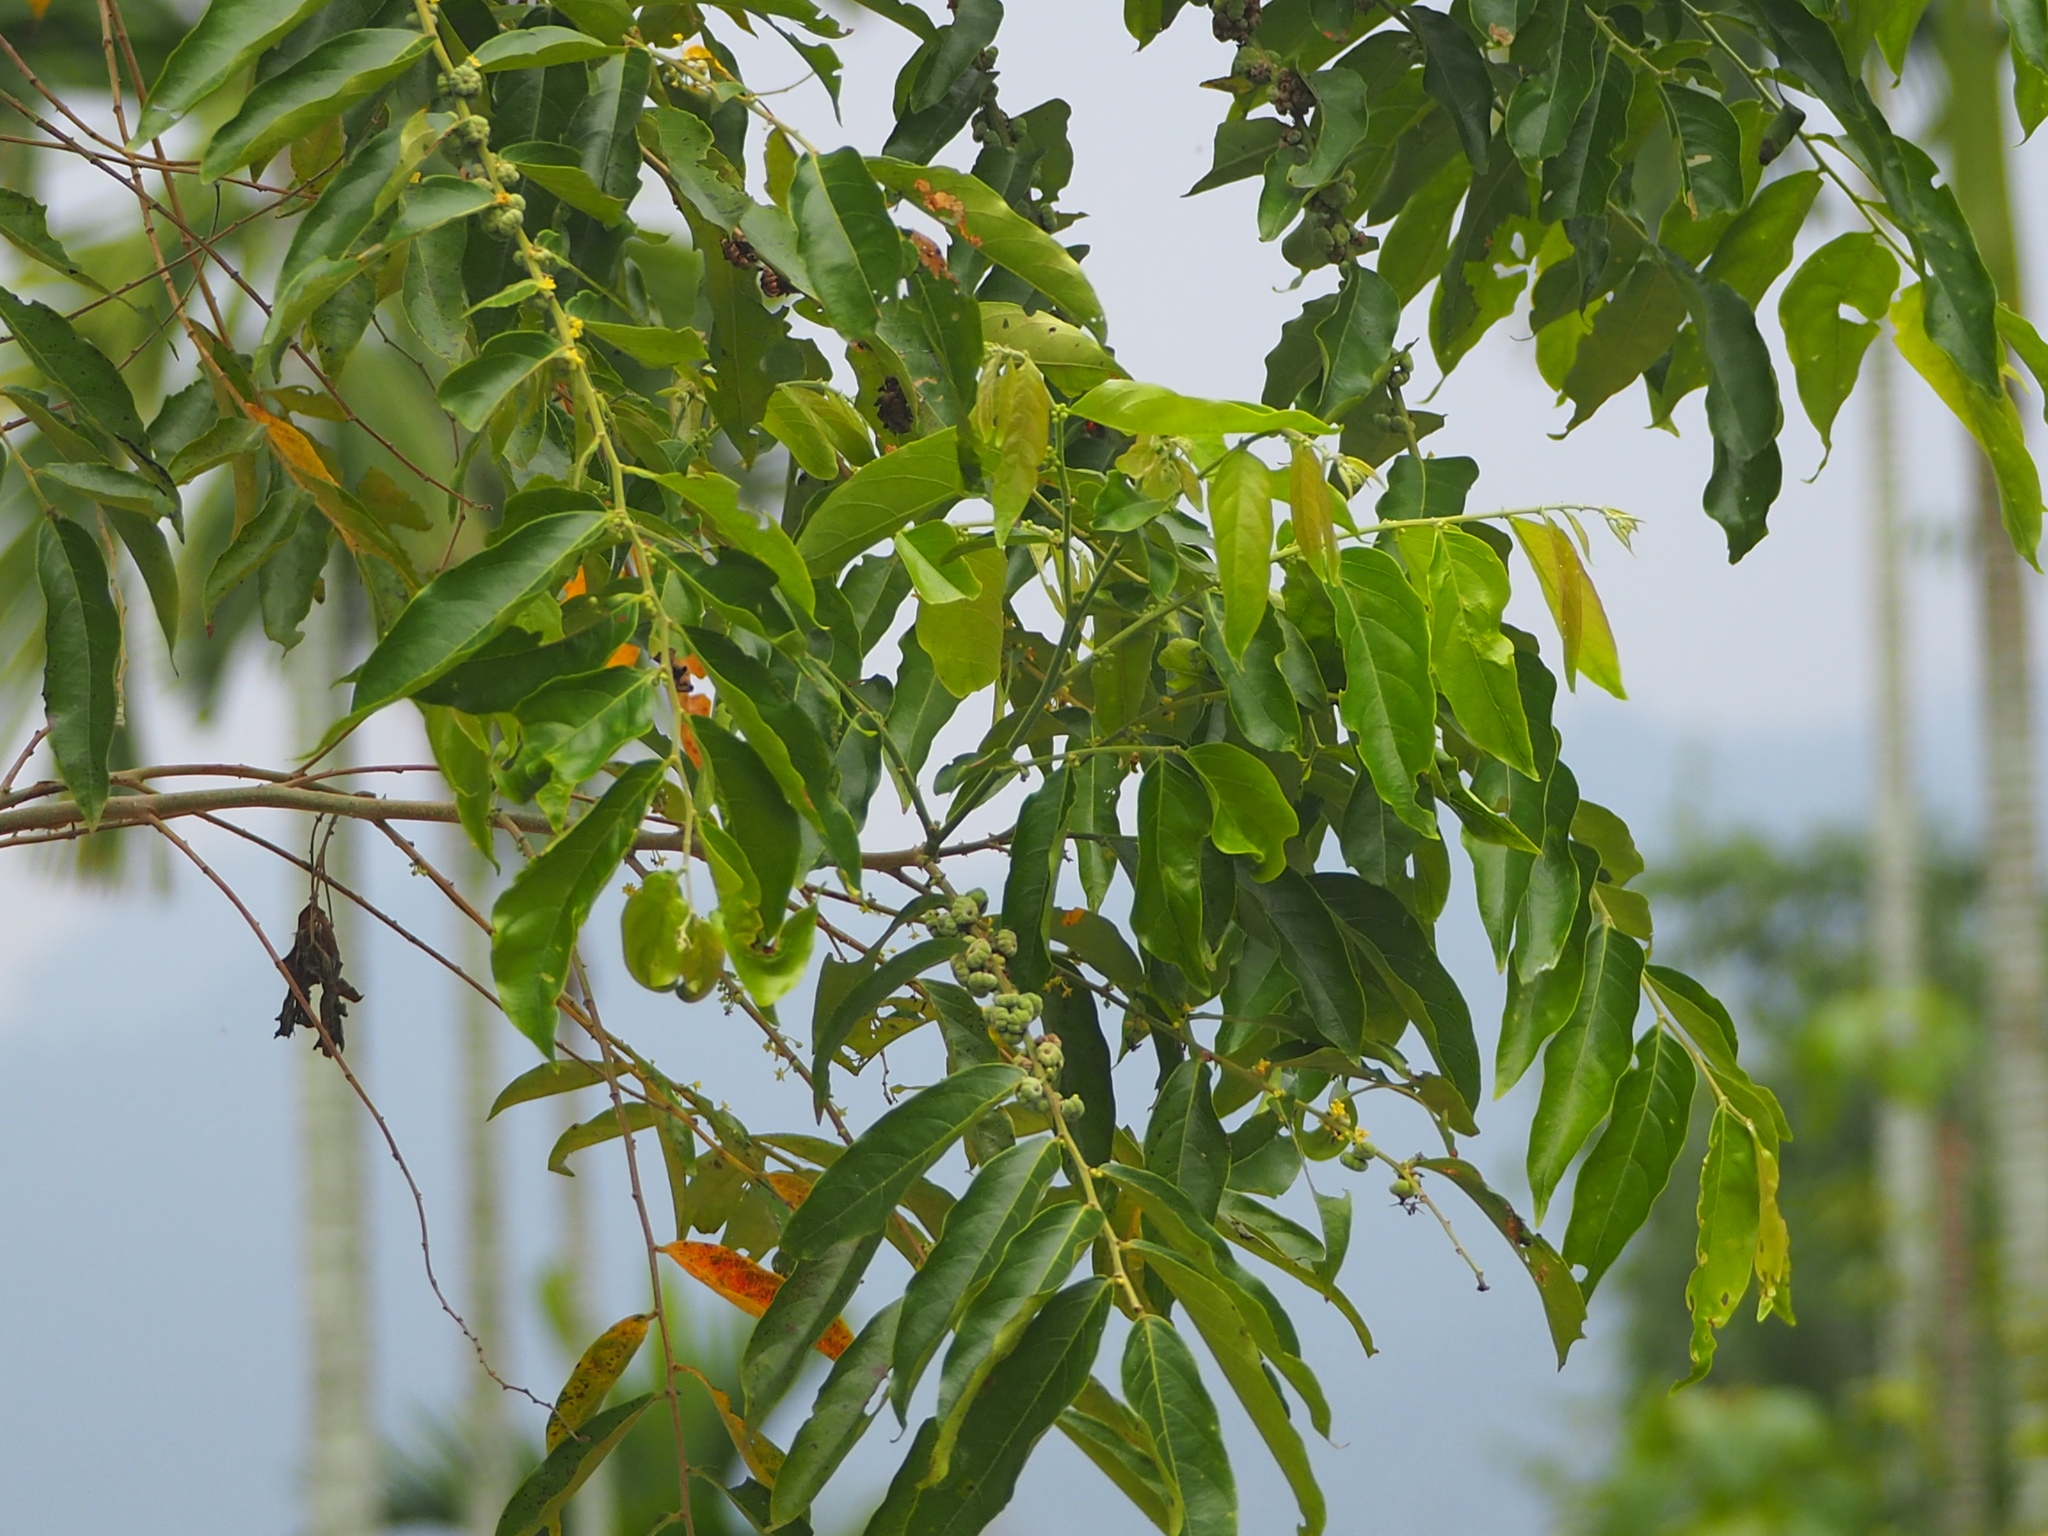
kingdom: Plantae
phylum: Tracheophyta
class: Magnoliopsida
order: Malpighiales
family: Phyllanthaceae
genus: Glochidion
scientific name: Glochidion philippicum
